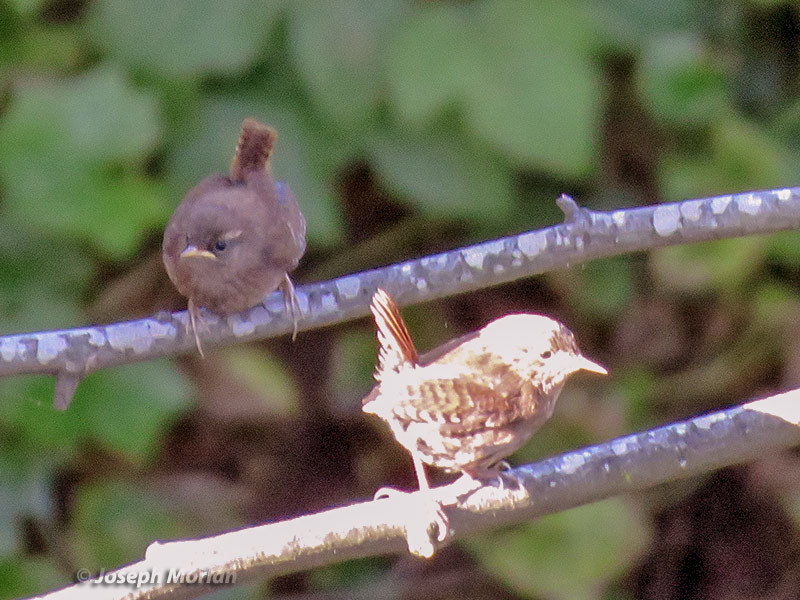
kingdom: Animalia
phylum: Chordata
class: Aves
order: Passeriformes
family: Troglodytidae
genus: Troglodytes
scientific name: Troglodytes pacificus
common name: Pacific wren
